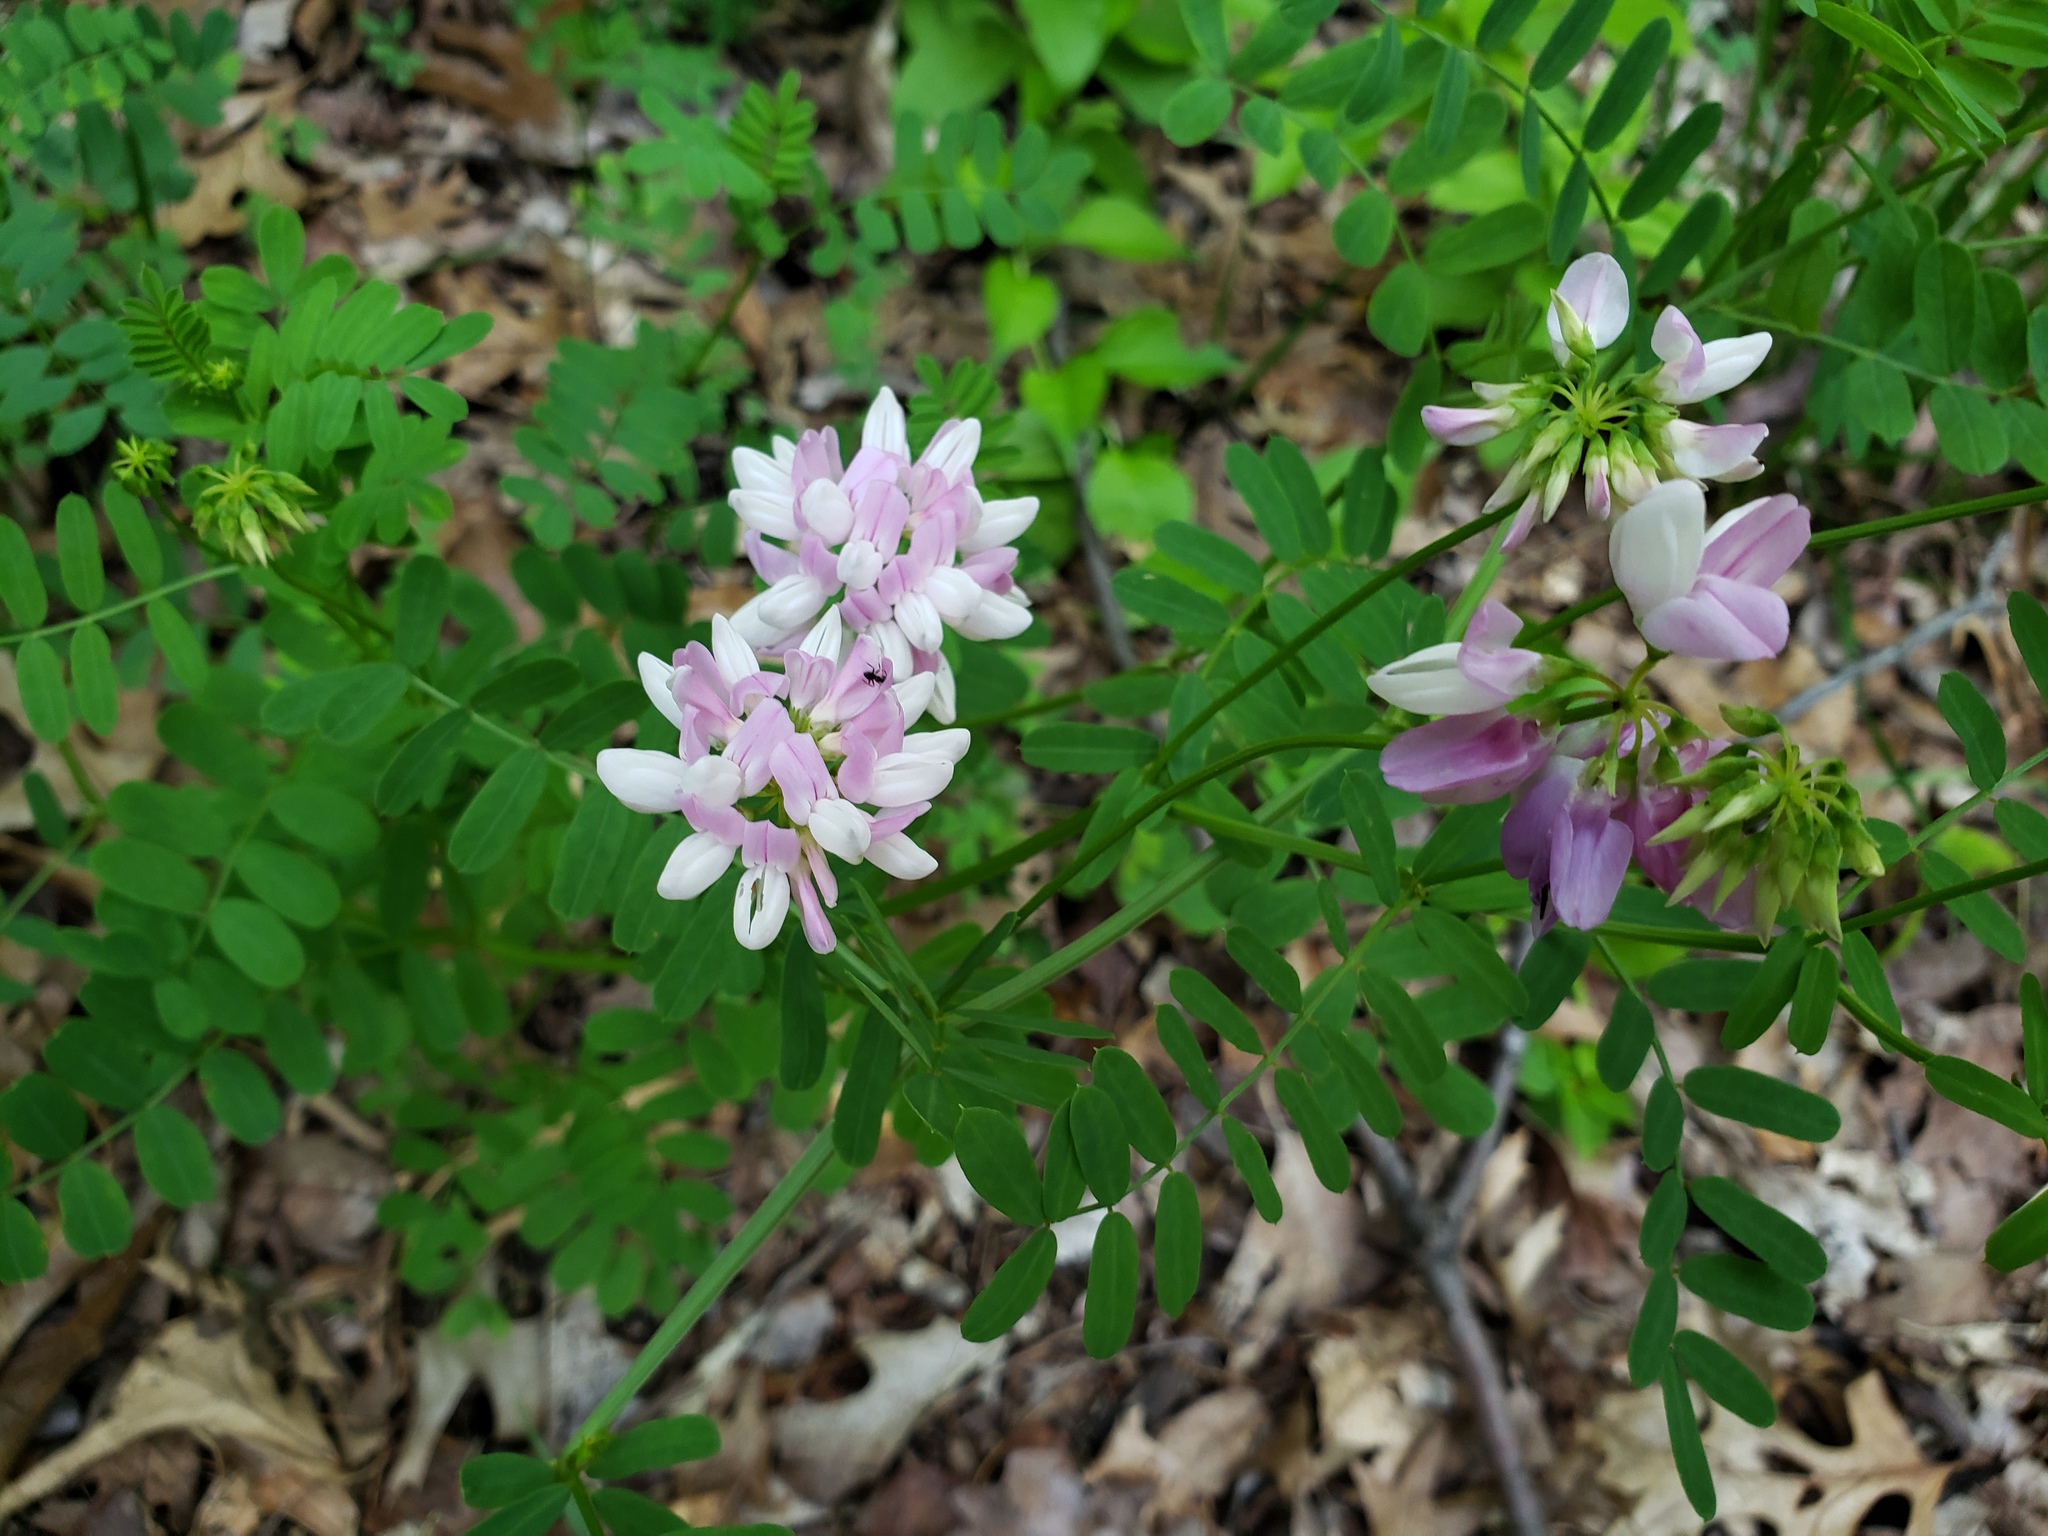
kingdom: Plantae
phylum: Tracheophyta
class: Magnoliopsida
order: Fabales
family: Fabaceae
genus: Coronilla
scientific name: Coronilla varia
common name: Crownvetch
